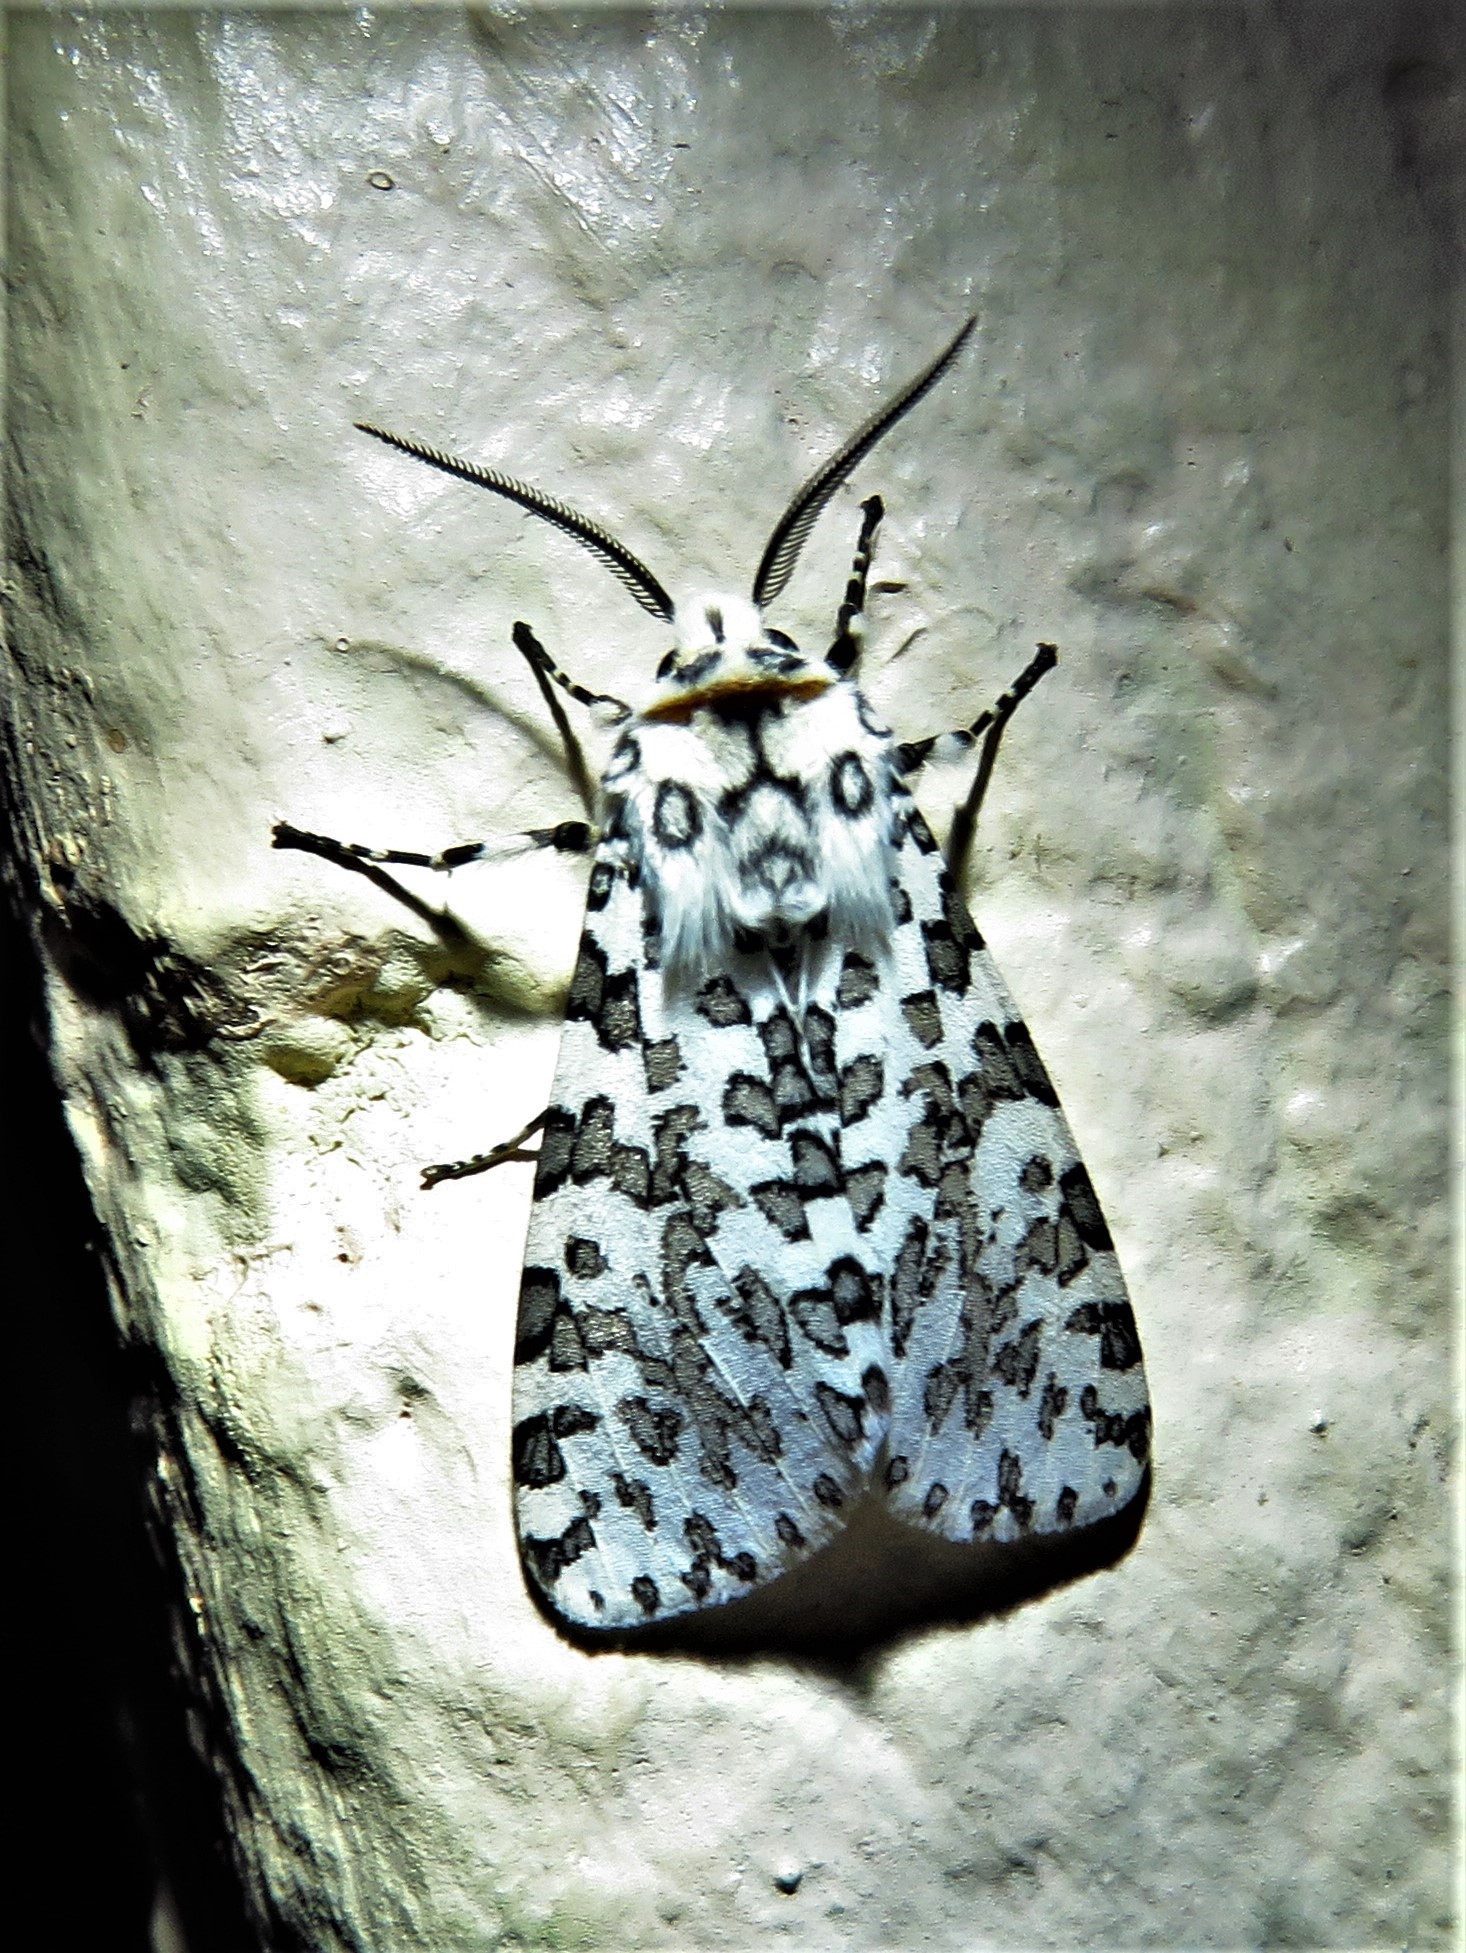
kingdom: Animalia
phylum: Arthropoda
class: Insecta
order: Lepidoptera
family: Erebidae
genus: Alpenus
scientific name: Alpenus maculosa
